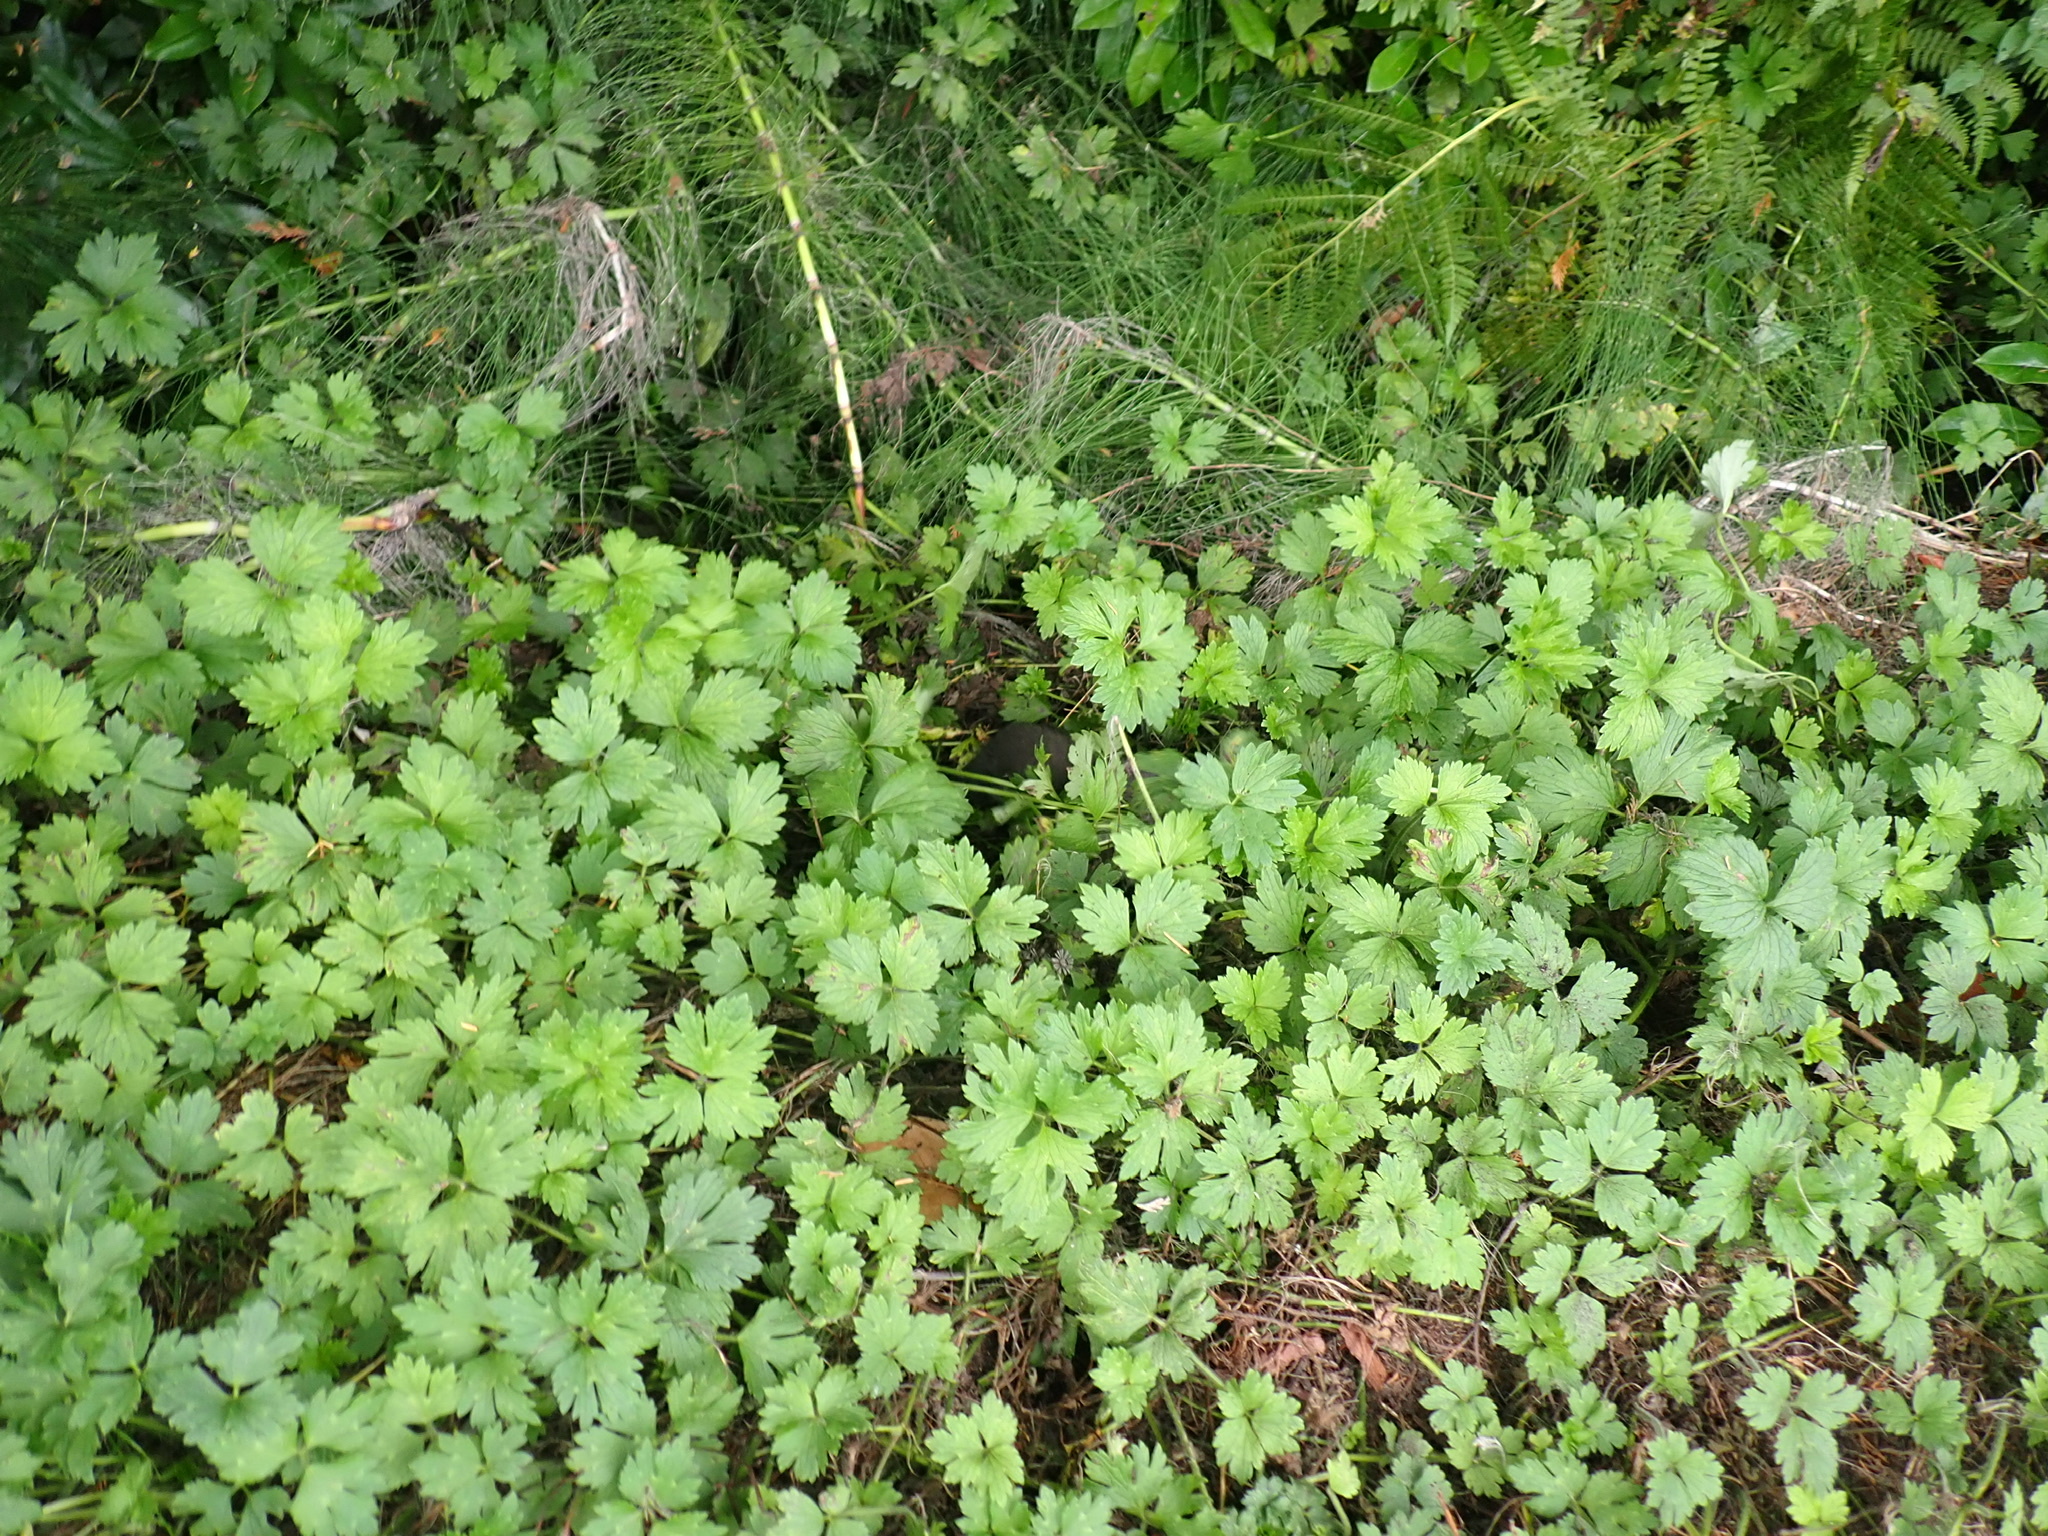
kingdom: Plantae
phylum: Tracheophyta
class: Magnoliopsida
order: Ranunculales
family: Ranunculaceae
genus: Ranunculus
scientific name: Ranunculus repens
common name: Creeping buttercup
